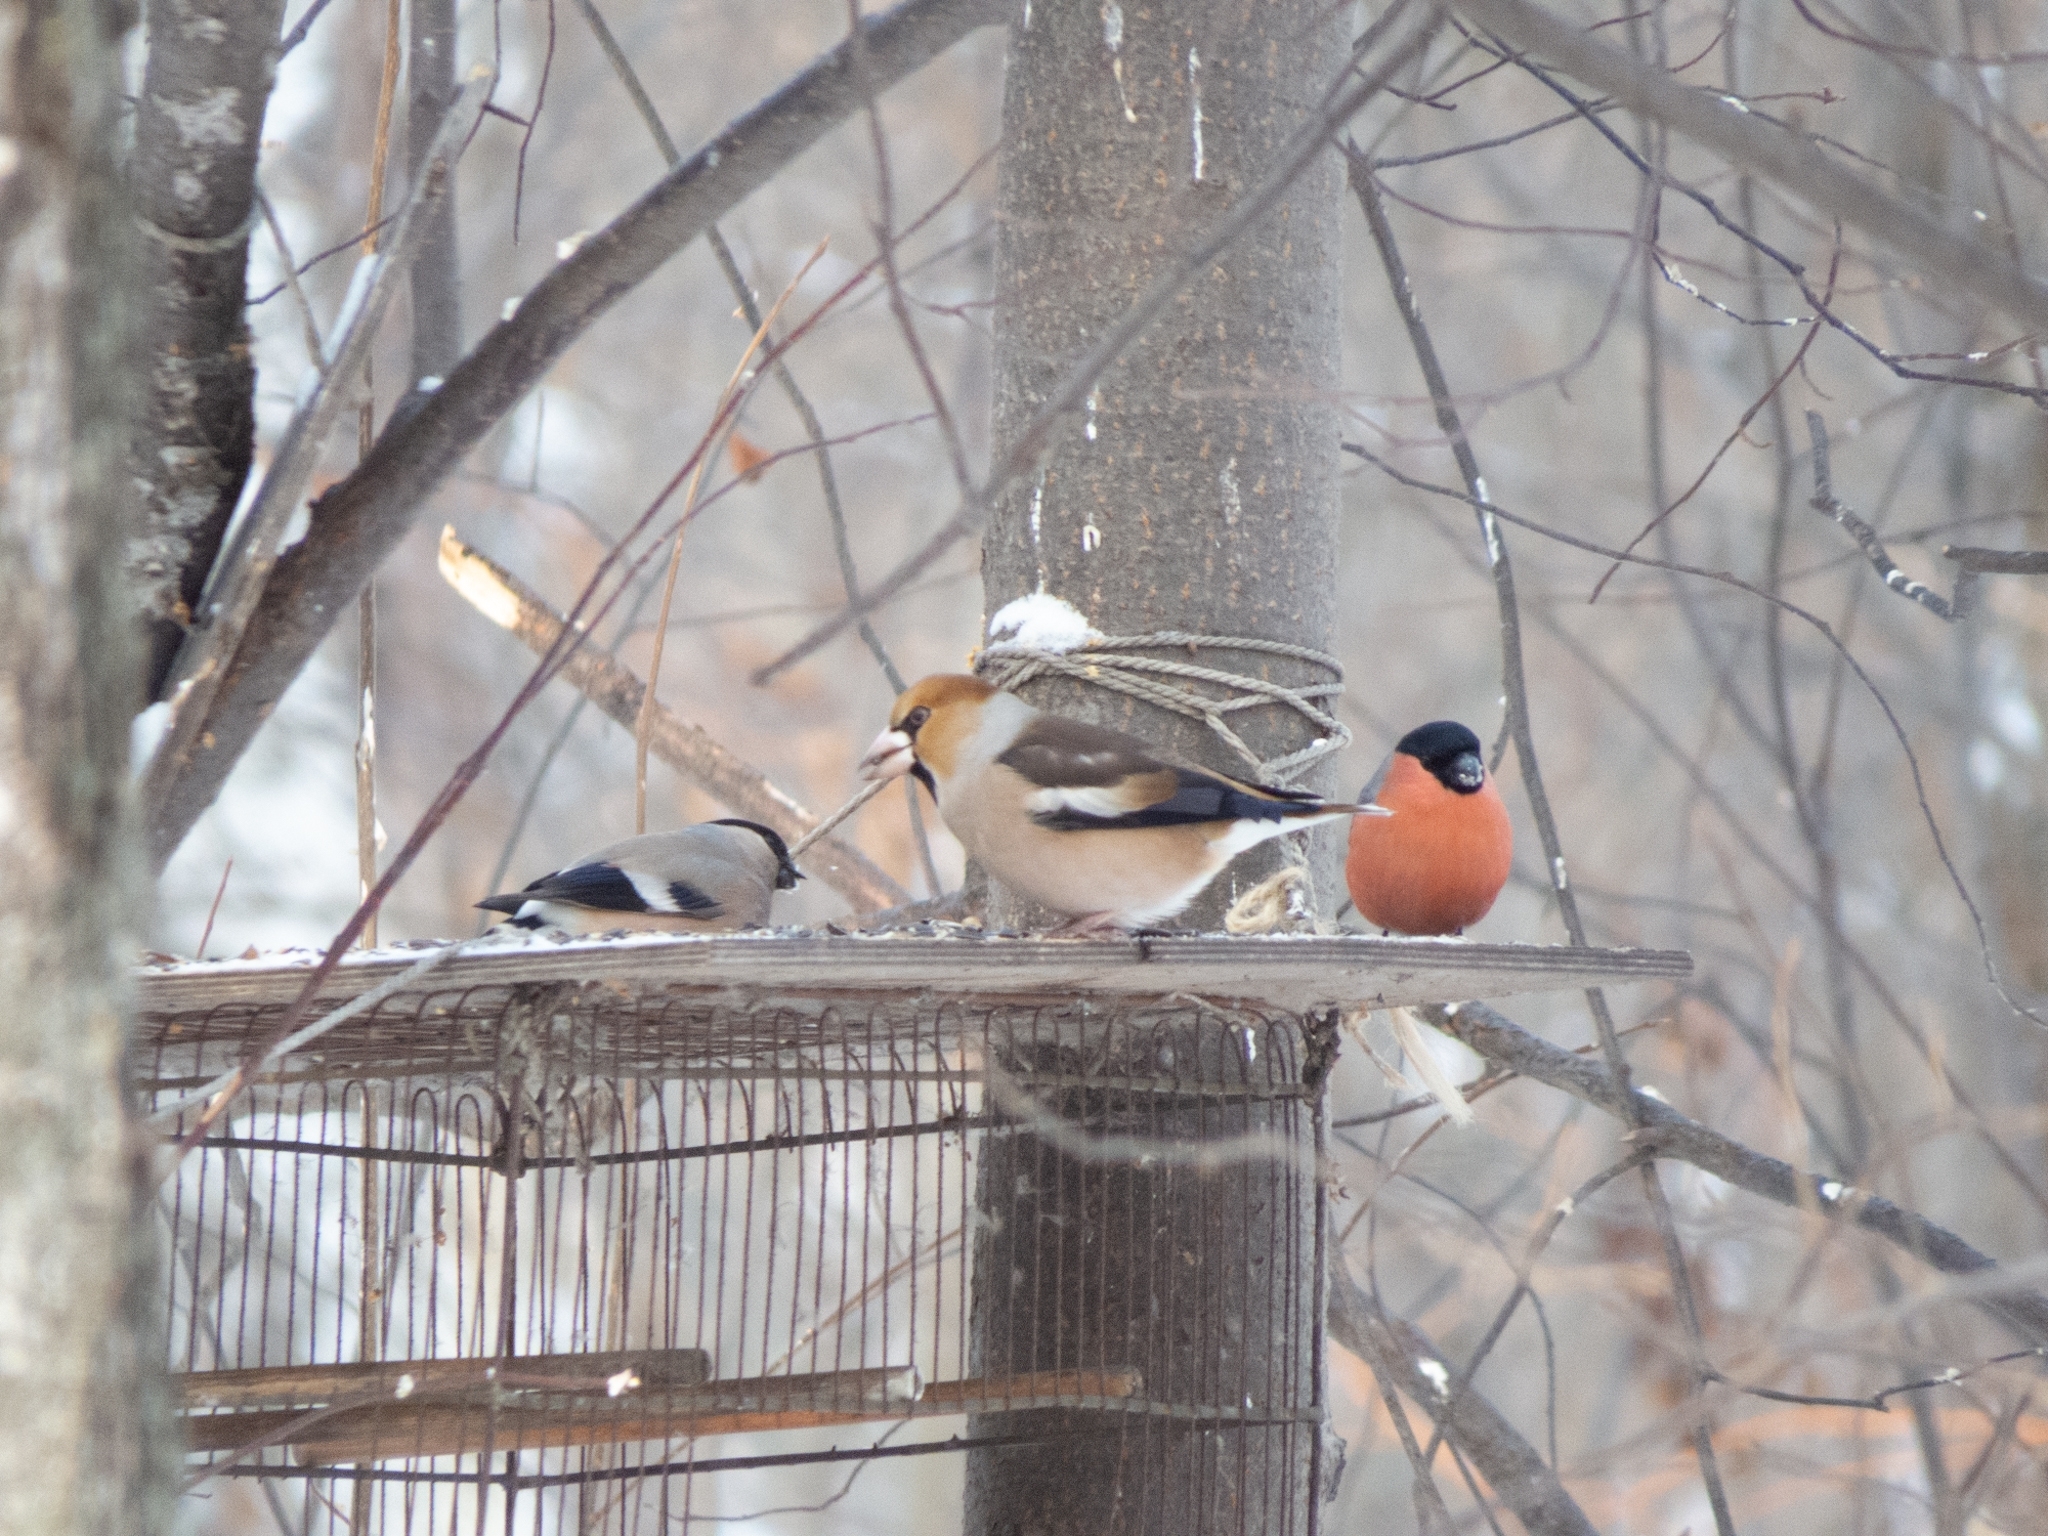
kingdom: Animalia
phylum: Chordata
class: Aves
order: Passeriformes
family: Fringillidae
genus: Coccothraustes
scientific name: Coccothraustes coccothraustes
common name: Hawfinch
